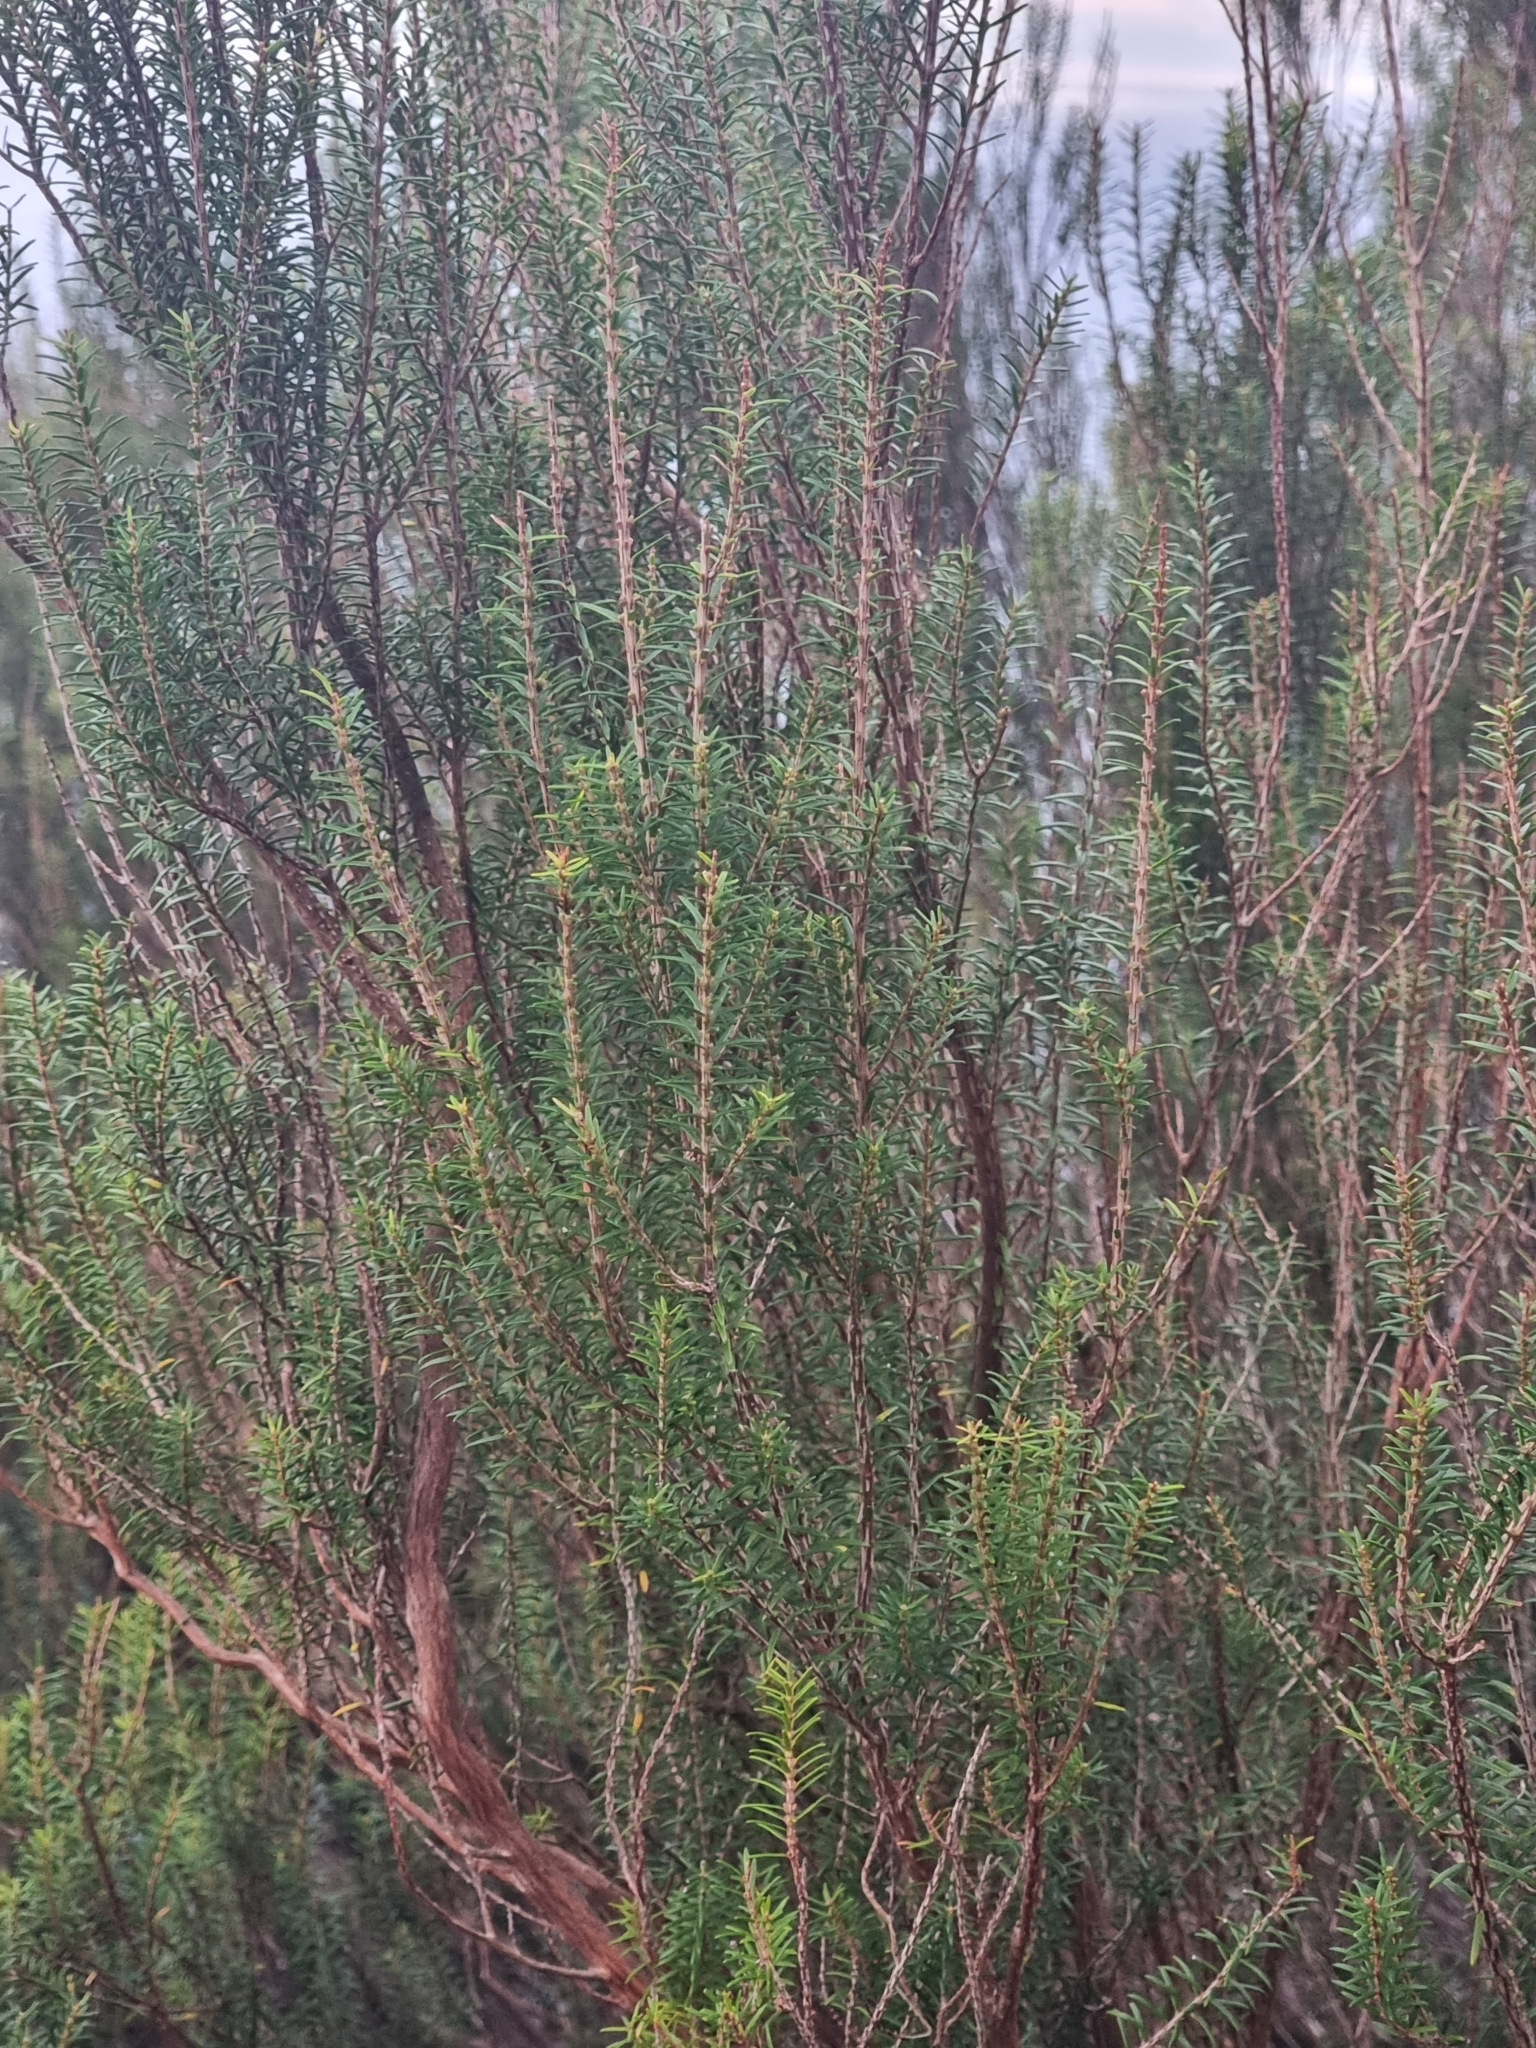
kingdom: Plantae
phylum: Tracheophyta
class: Magnoliopsida
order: Ericales
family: Ericaceae
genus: Erica
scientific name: Erica platycodon
